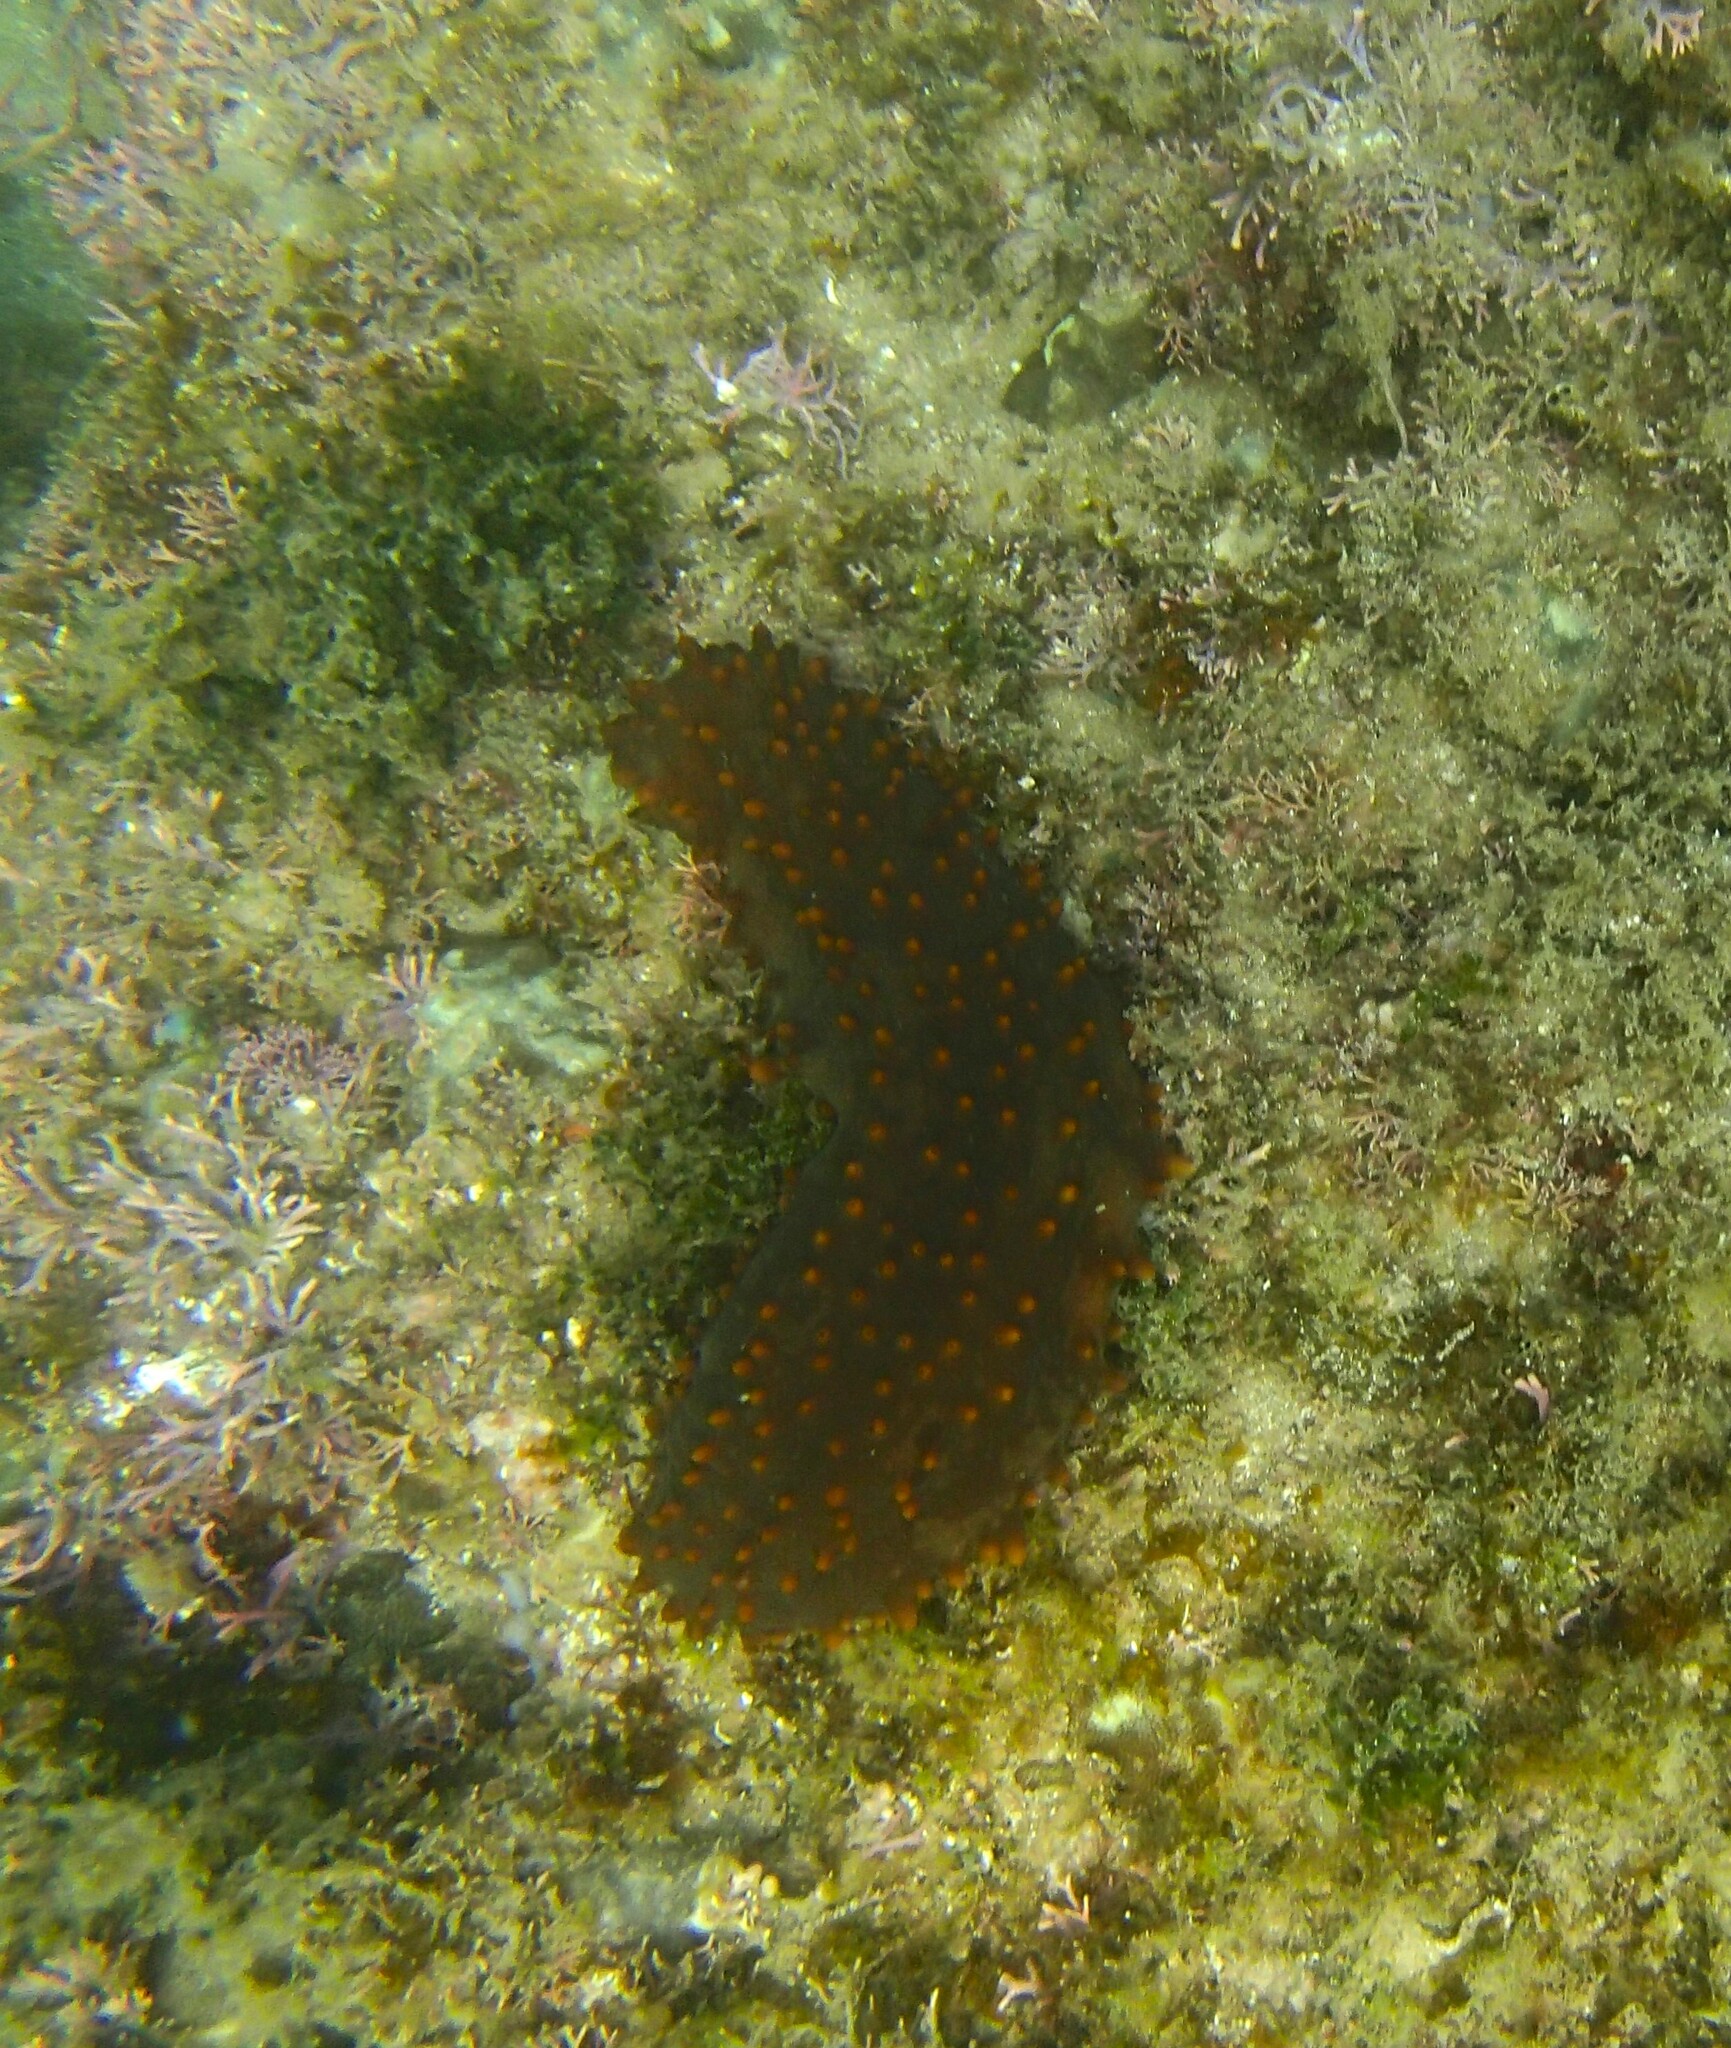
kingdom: Animalia
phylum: Echinodermata
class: Holothuroidea
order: Synallactida
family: Stichopodidae
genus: Isostichopus
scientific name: Isostichopus fuscus
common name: Brown sea cucumber
